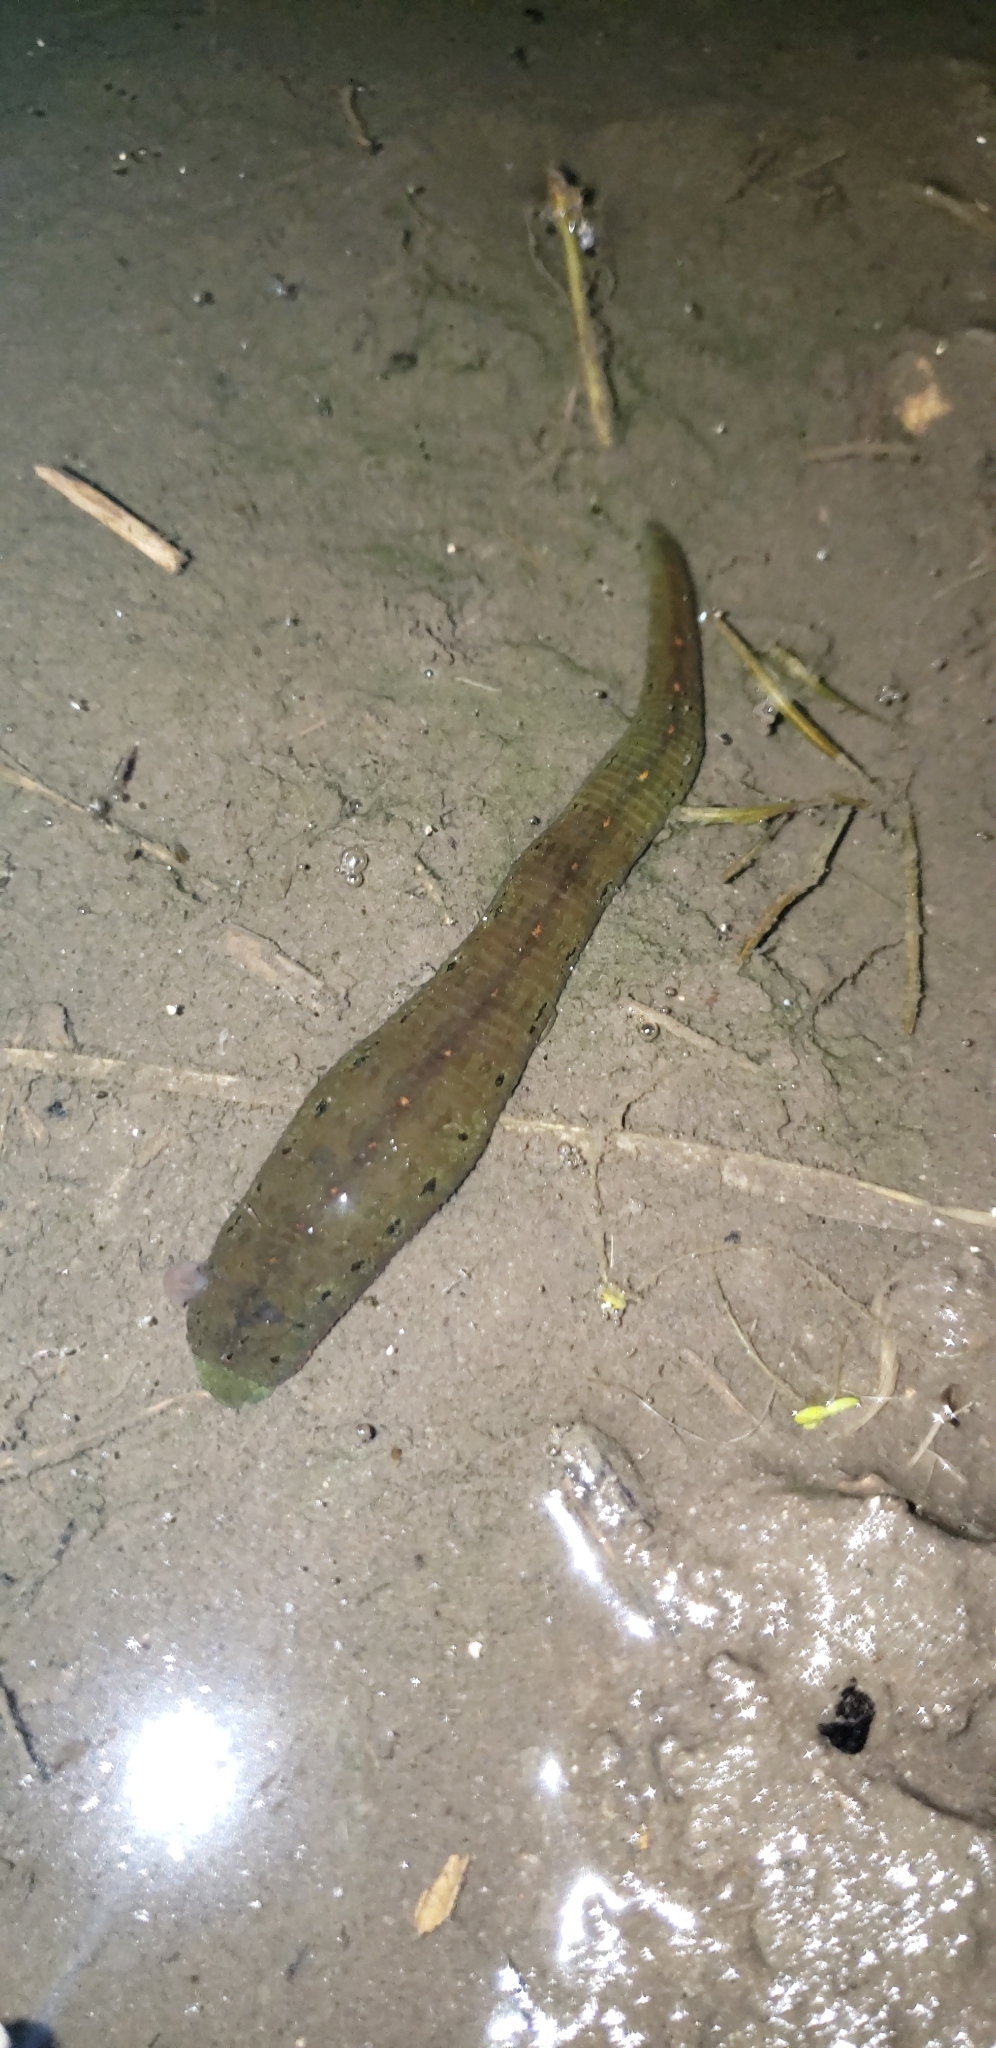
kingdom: Animalia
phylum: Annelida
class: Clitellata
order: Arhynchobdellida
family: Hirudinidae
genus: Macrobdella
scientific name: Macrobdella decora
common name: North american leech
